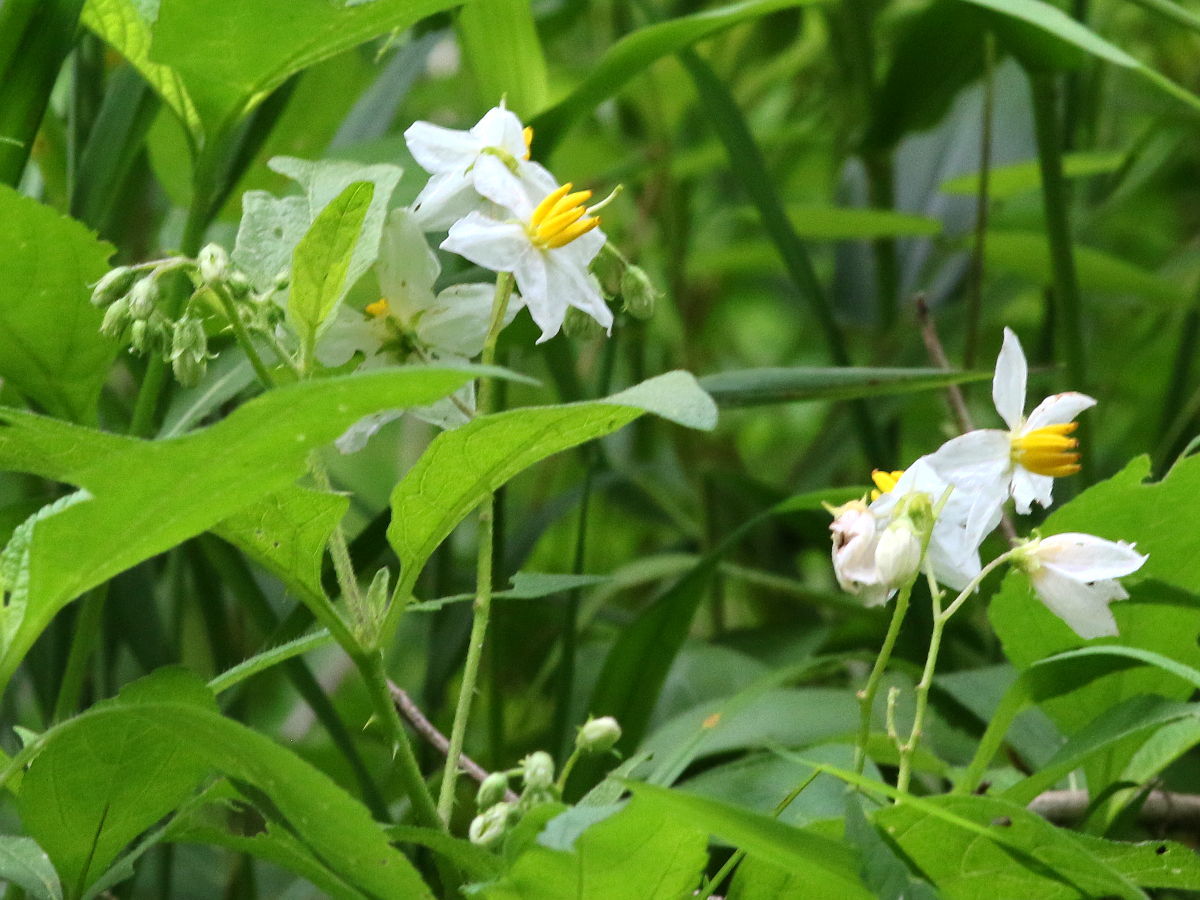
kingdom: Plantae
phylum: Tracheophyta
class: Magnoliopsida
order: Solanales
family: Solanaceae
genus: Solanum
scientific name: Solanum carolinense
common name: Horse-nettle
